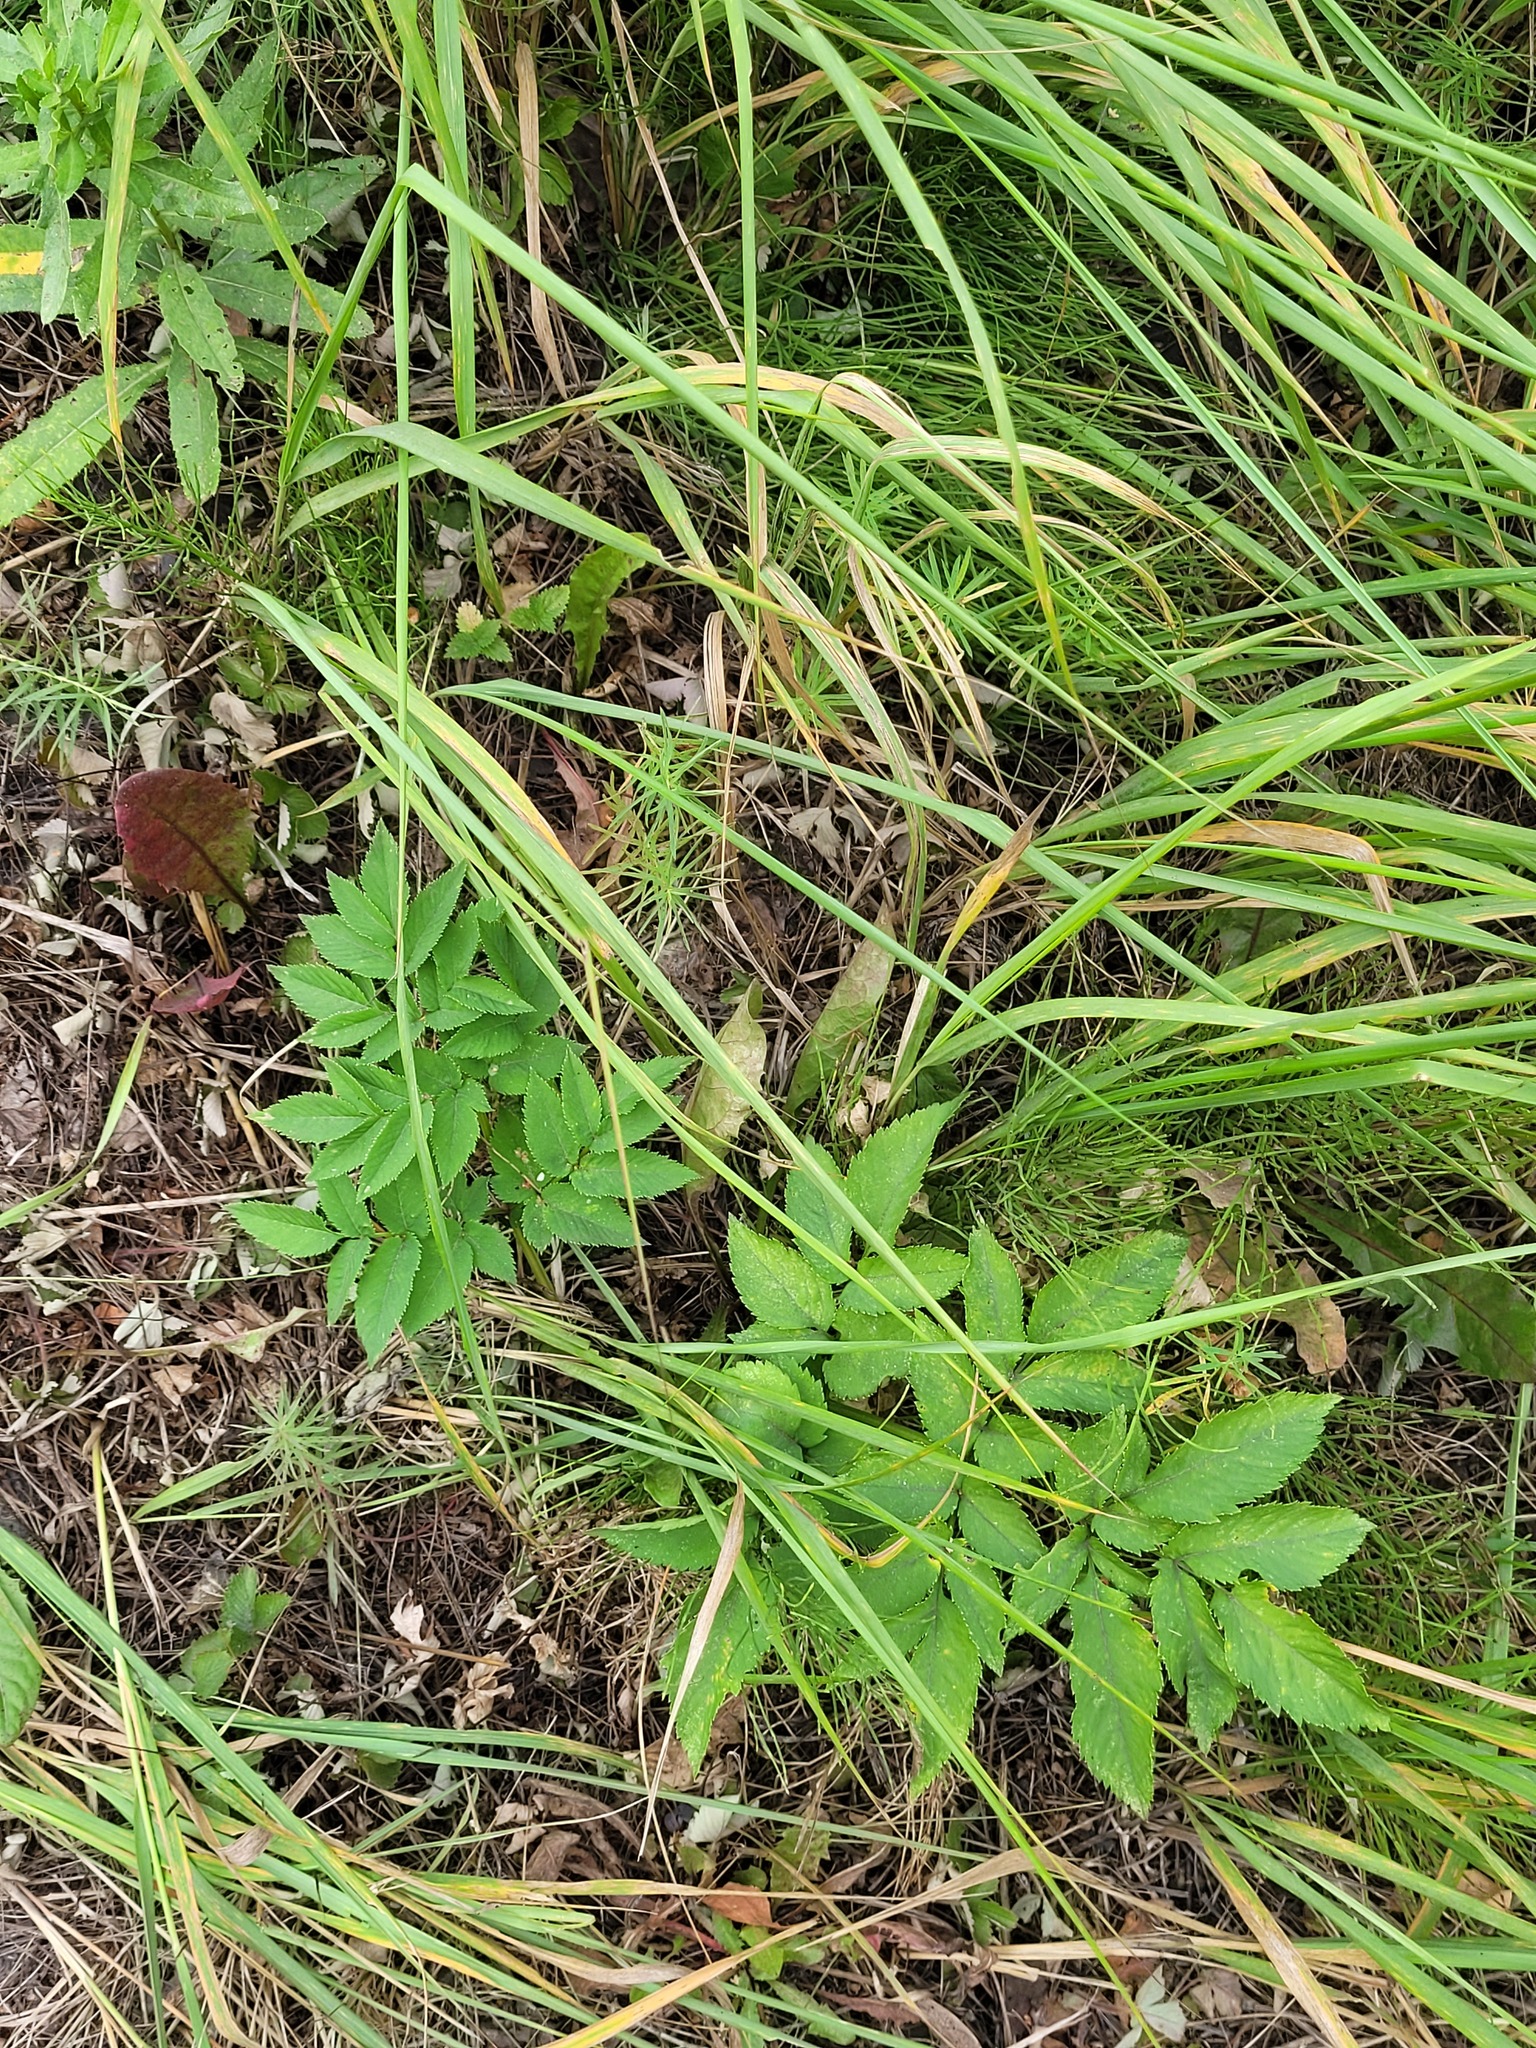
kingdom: Plantae
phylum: Tracheophyta
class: Magnoliopsida
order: Apiales
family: Apiaceae
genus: Angelica
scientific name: Angelica sylvestris
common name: Wild angelica
